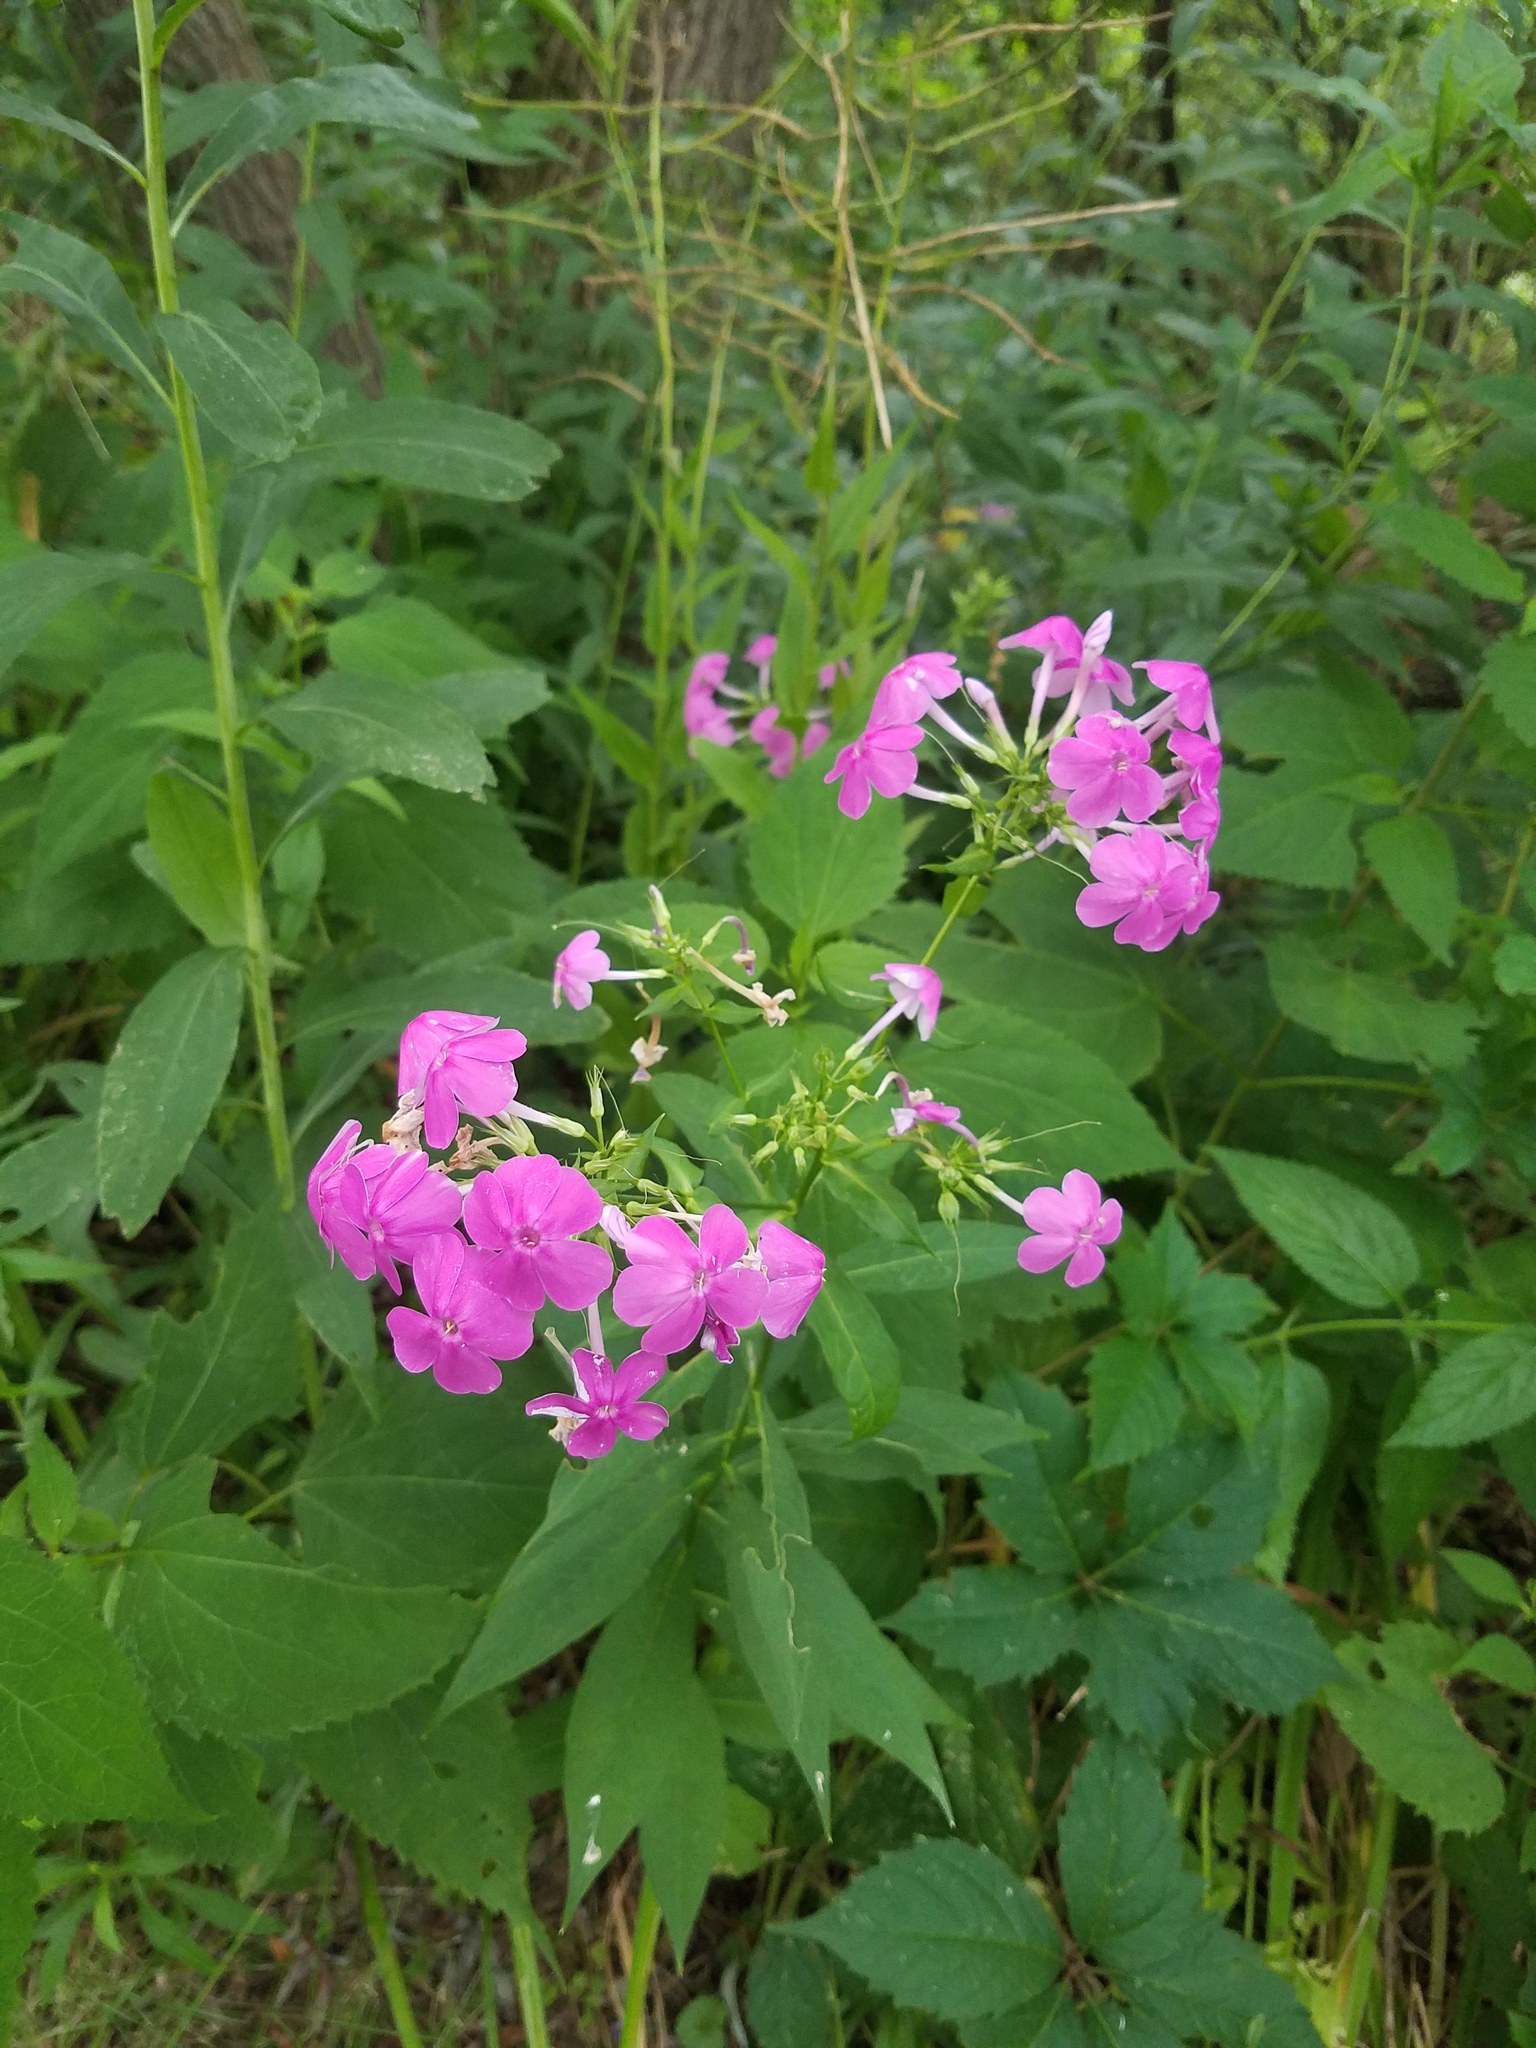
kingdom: Plantae
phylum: Tracheophyta
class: Magnoliopsida
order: Ericales
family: Polemoniaceae
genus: Phlox
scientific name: Phlox paniculata
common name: Fall phlox
